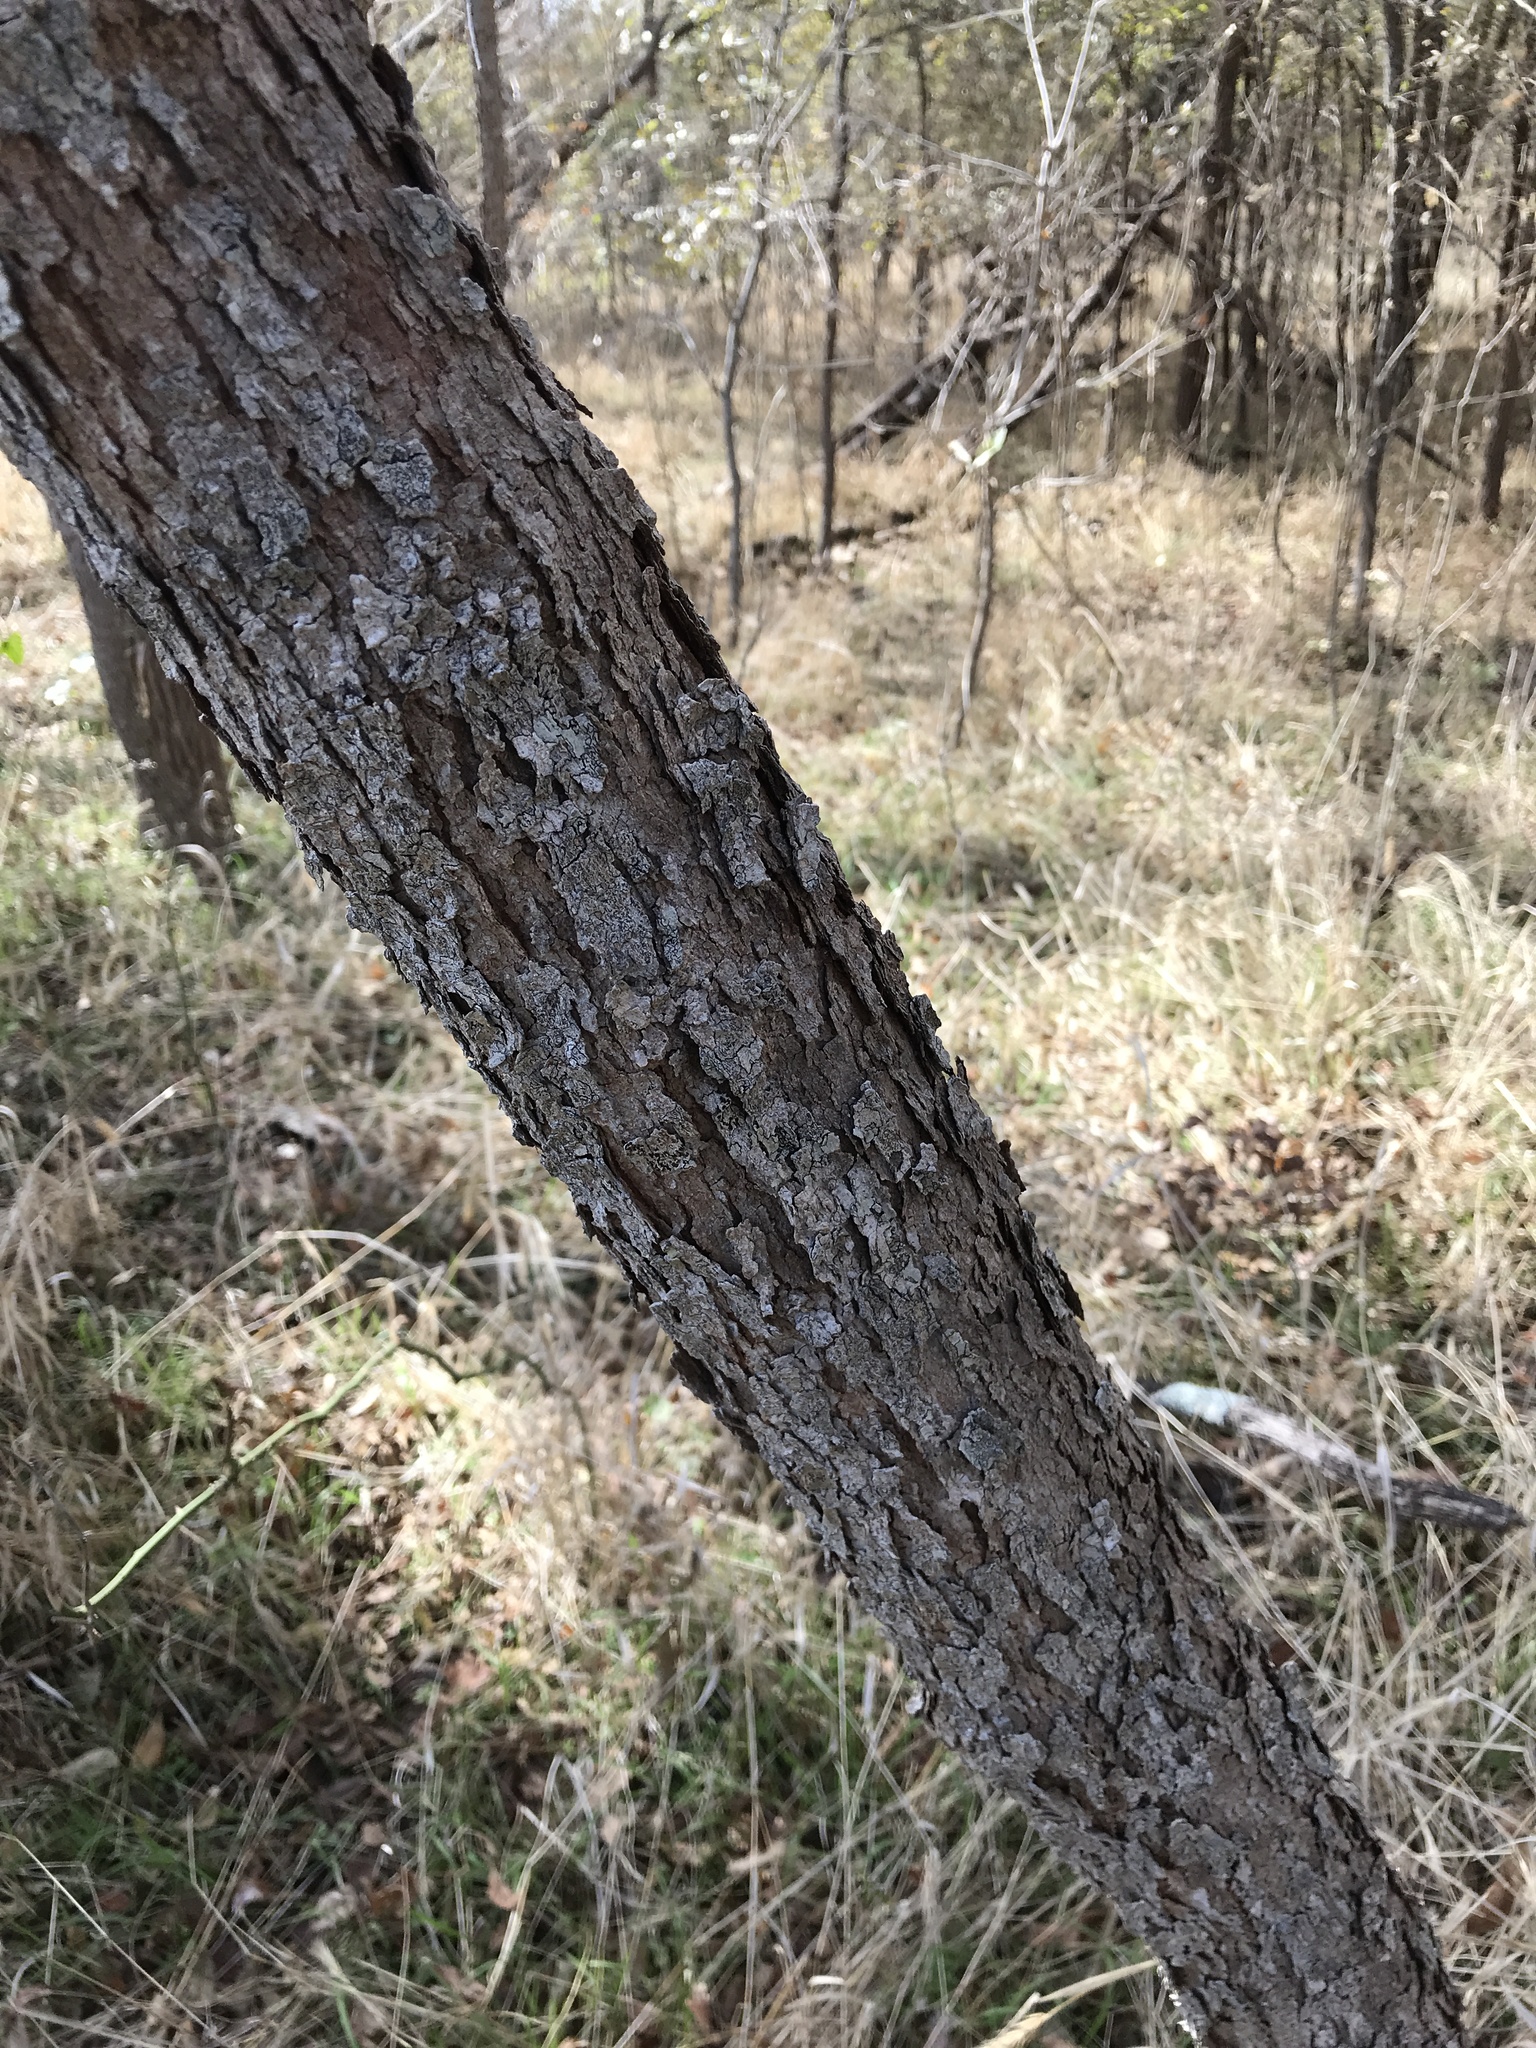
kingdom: Plantae
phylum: Tracheophyta
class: Magnoliopsida
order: Sapindales
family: Sapindaceae
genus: Sapindus
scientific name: Sapindus drummondii
